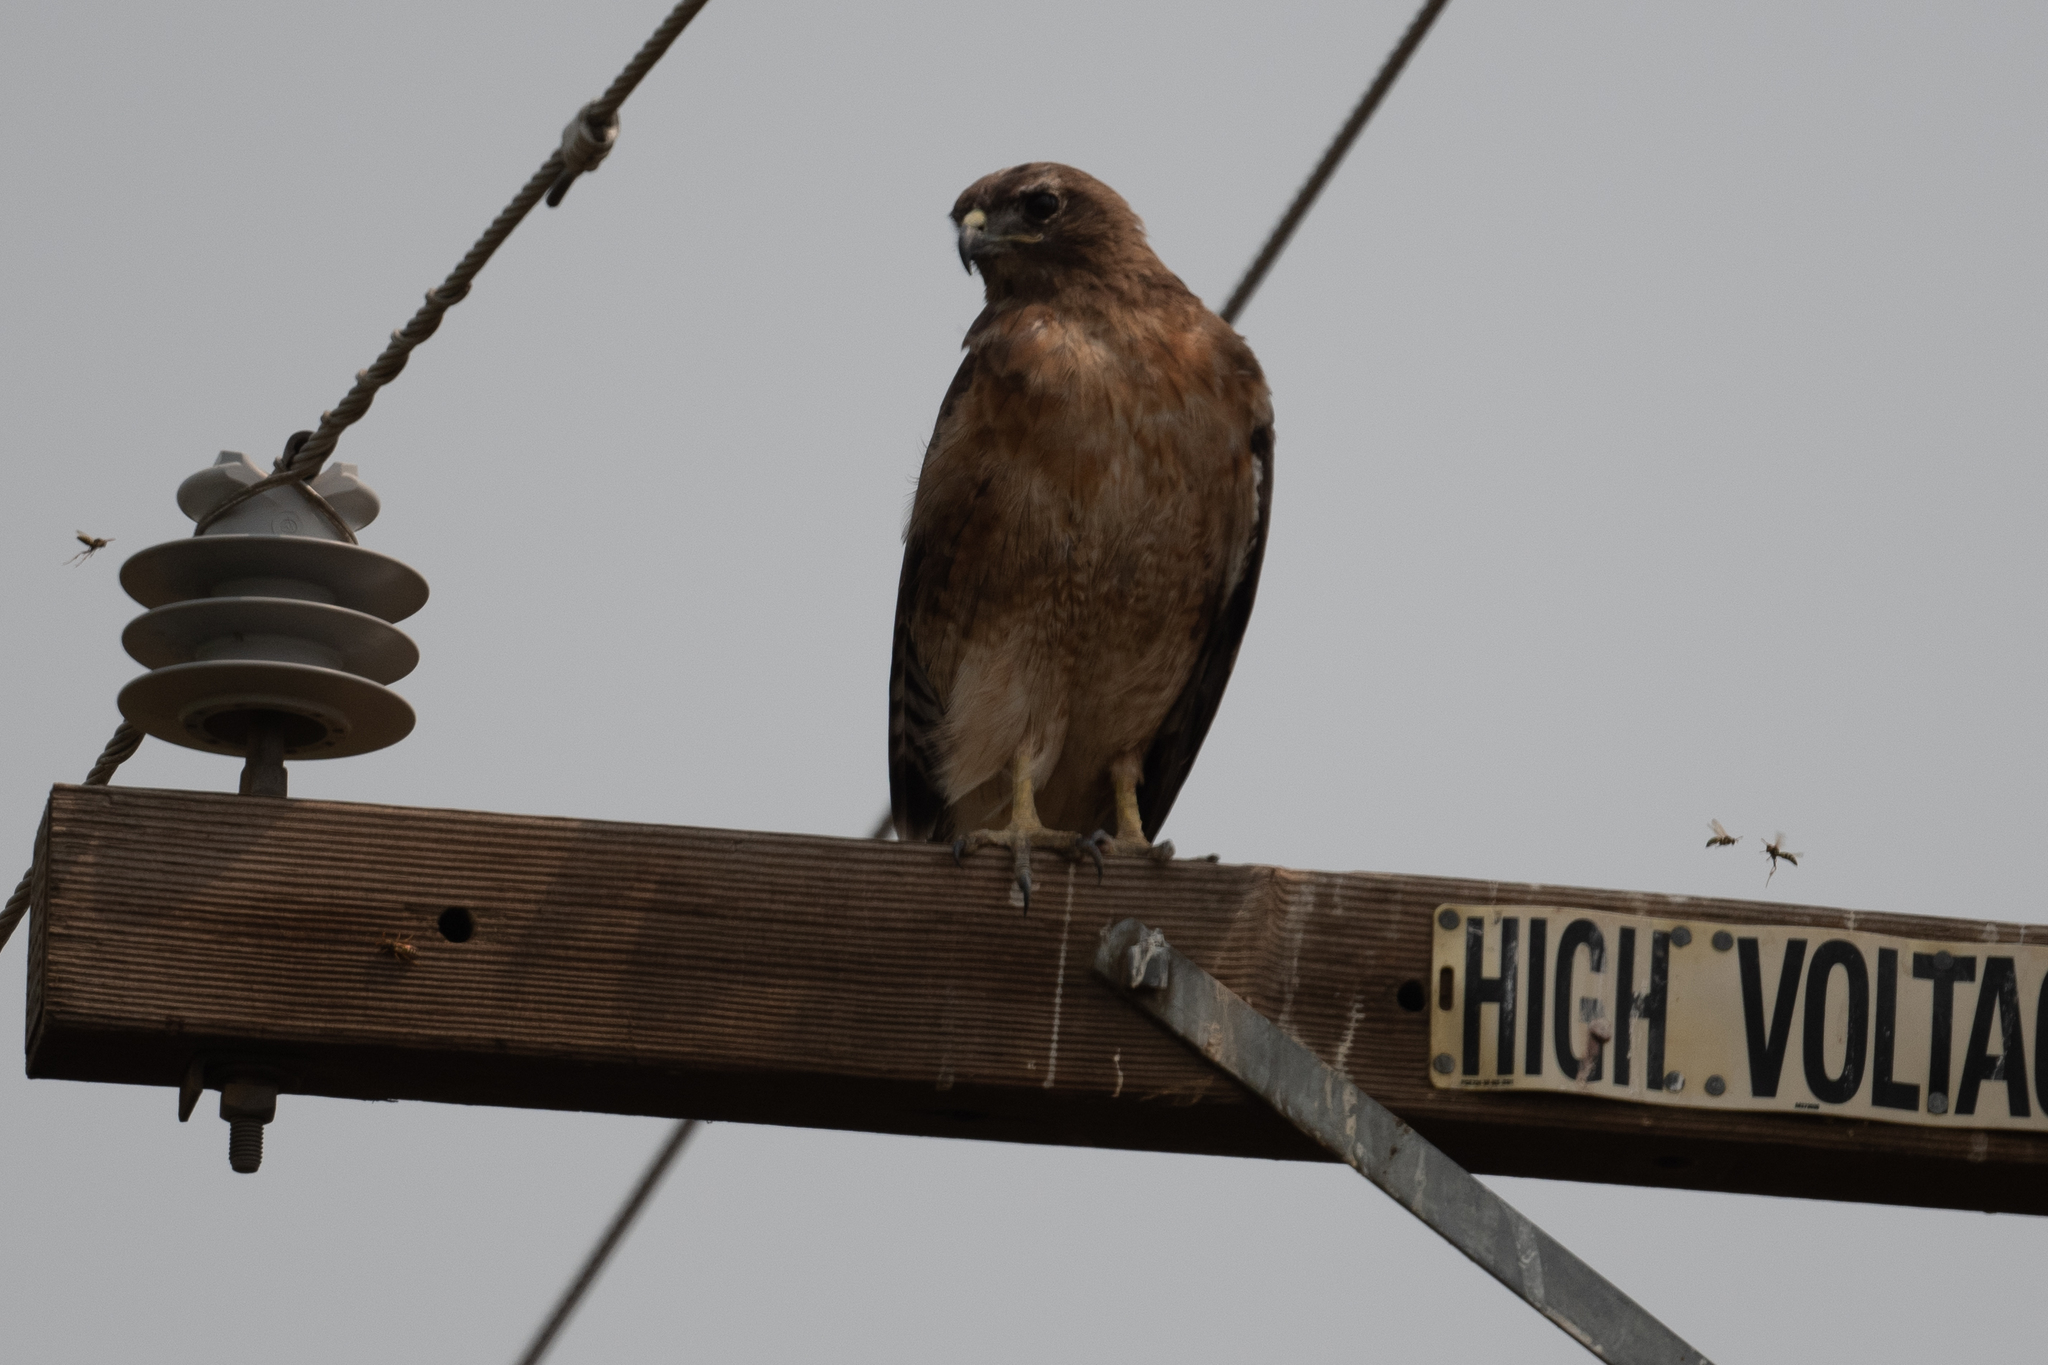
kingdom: Animalia
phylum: Chordata
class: Aves
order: Accipitriformes
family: Accipitridae
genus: Buteo
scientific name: Buteo jamaicensis
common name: Red-tailed hawk
